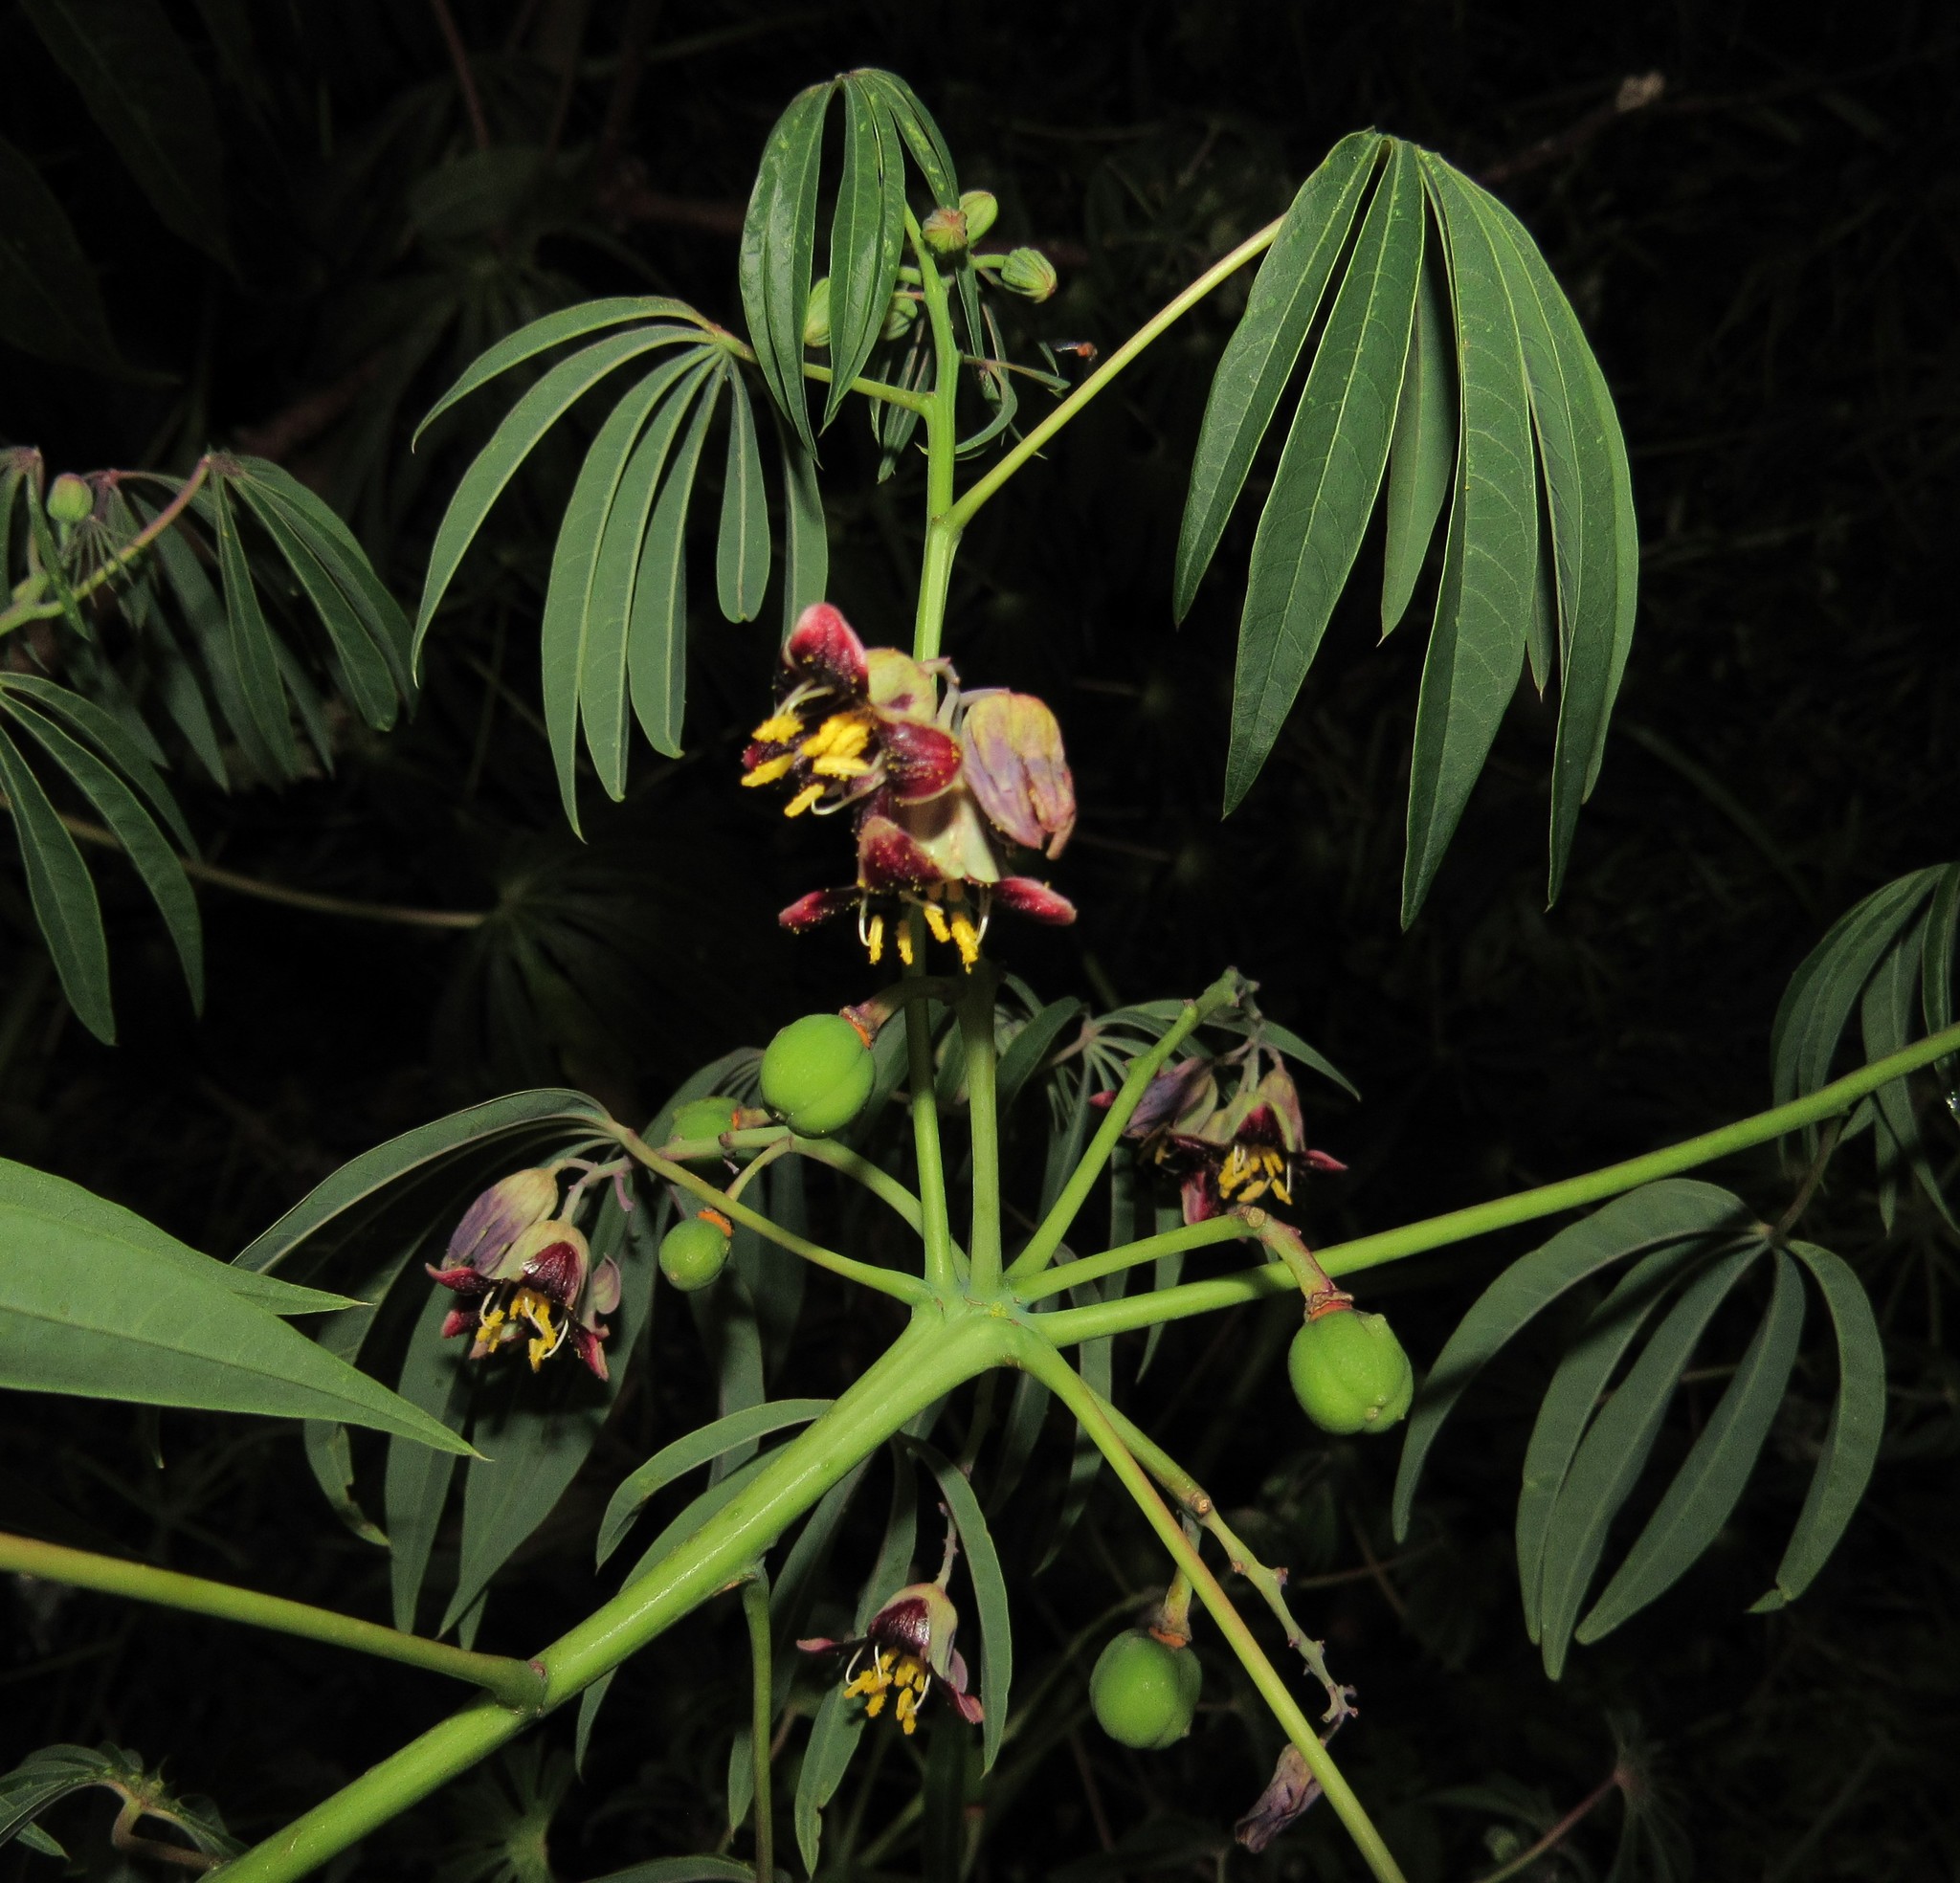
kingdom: Plantae
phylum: Tracheophyta
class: Magnoliopsida
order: Malpighiales
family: Euphorbiaceae
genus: Manihot
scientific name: Manihot grahamii
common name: Graham's manihot
